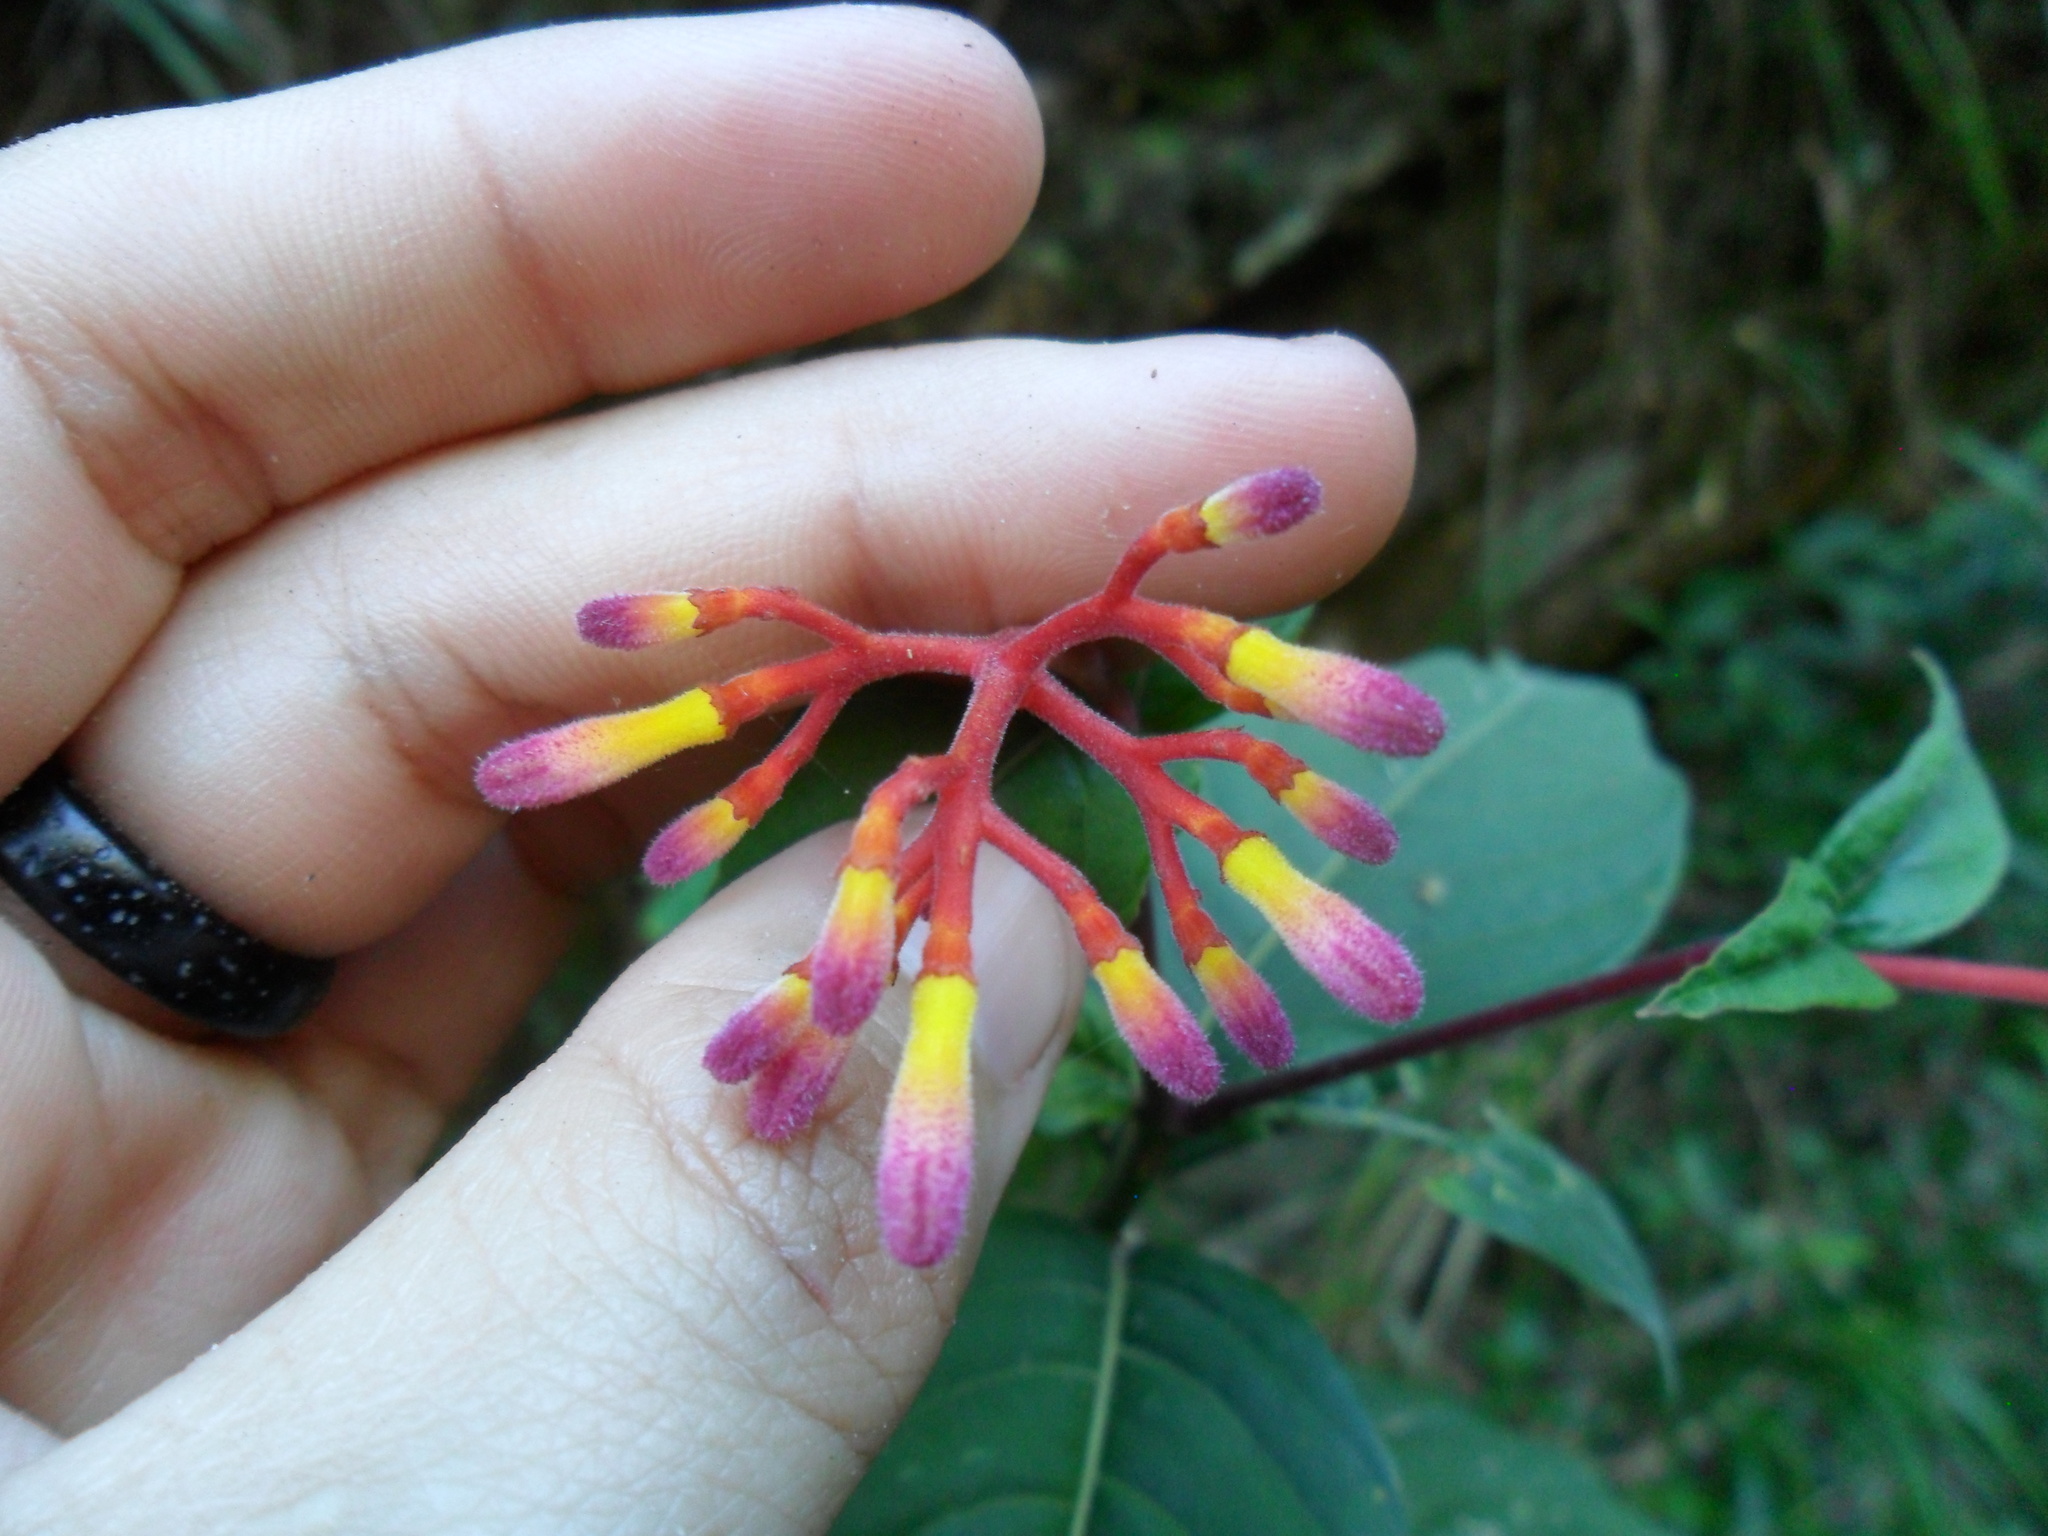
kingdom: Plantae
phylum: Tracheophyta
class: Magnoliopsida
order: Gentianales
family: Rubiaceae
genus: Palicourea
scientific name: Palicourea marcgravii
